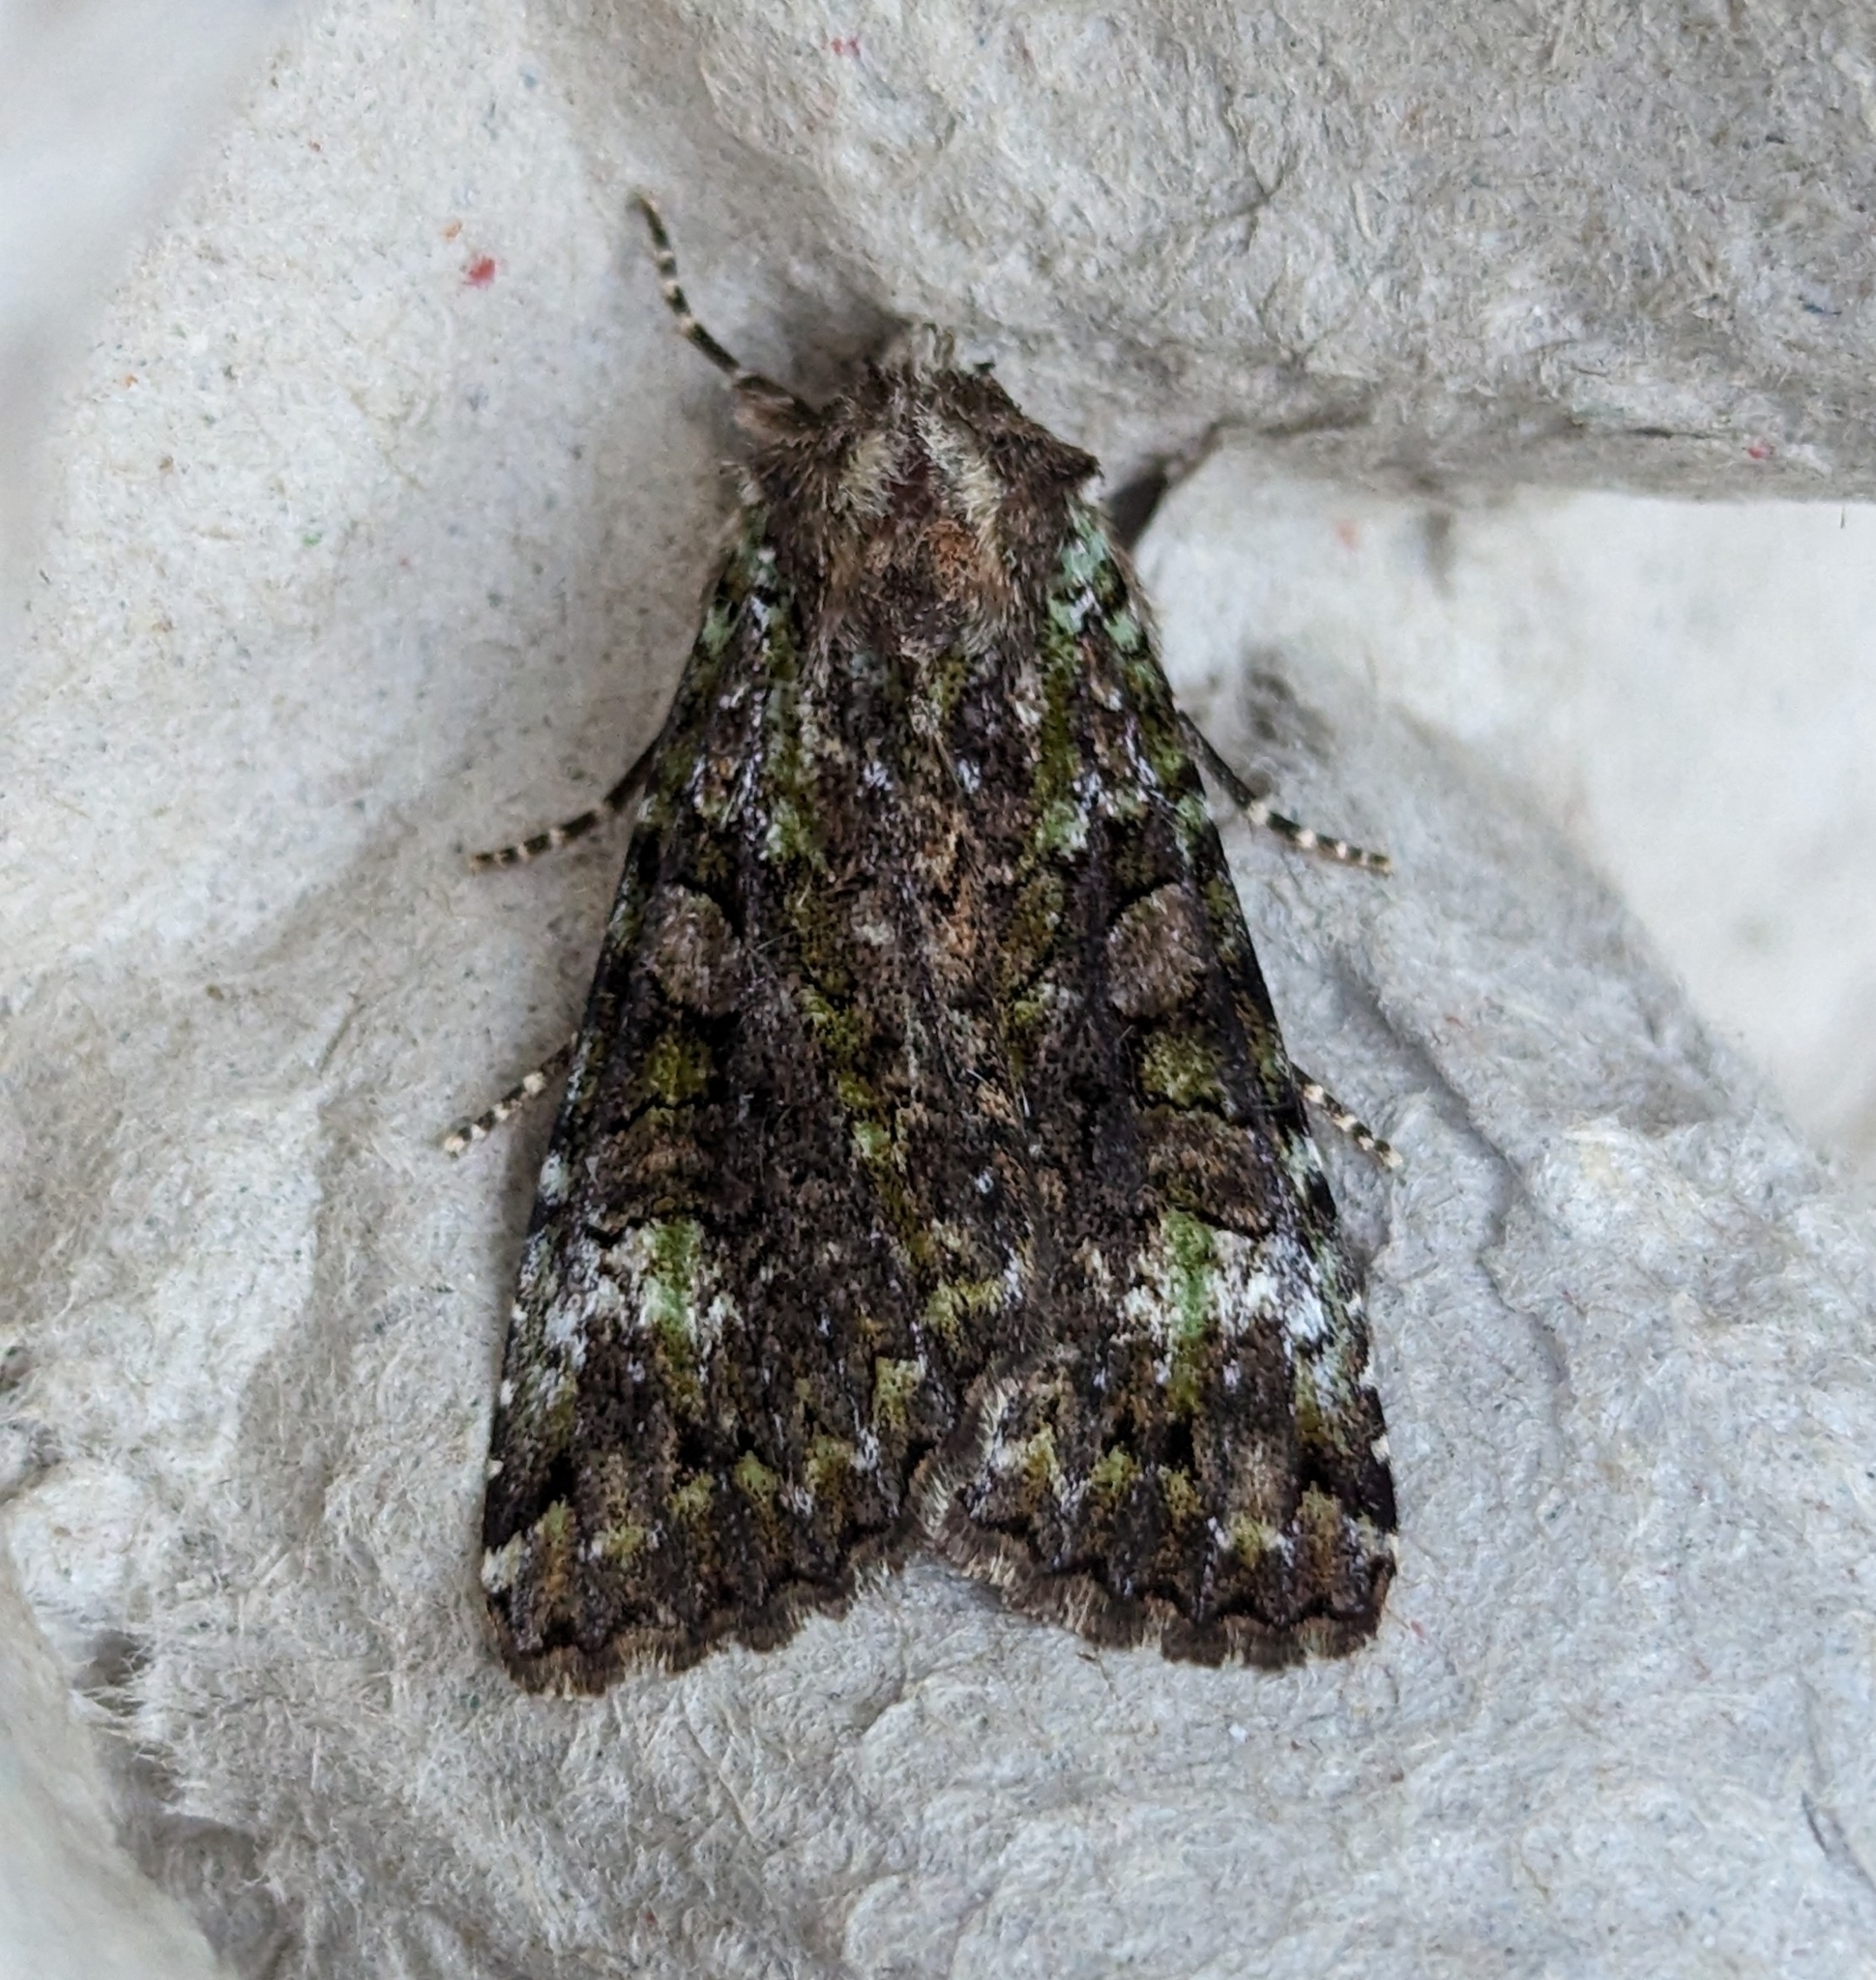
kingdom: Animalia
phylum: Arthropoda
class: Insecta
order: Lepidoptera
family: Noctuidae
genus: Anaplectoides
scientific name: Anaplectoides prasina
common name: Green arches
